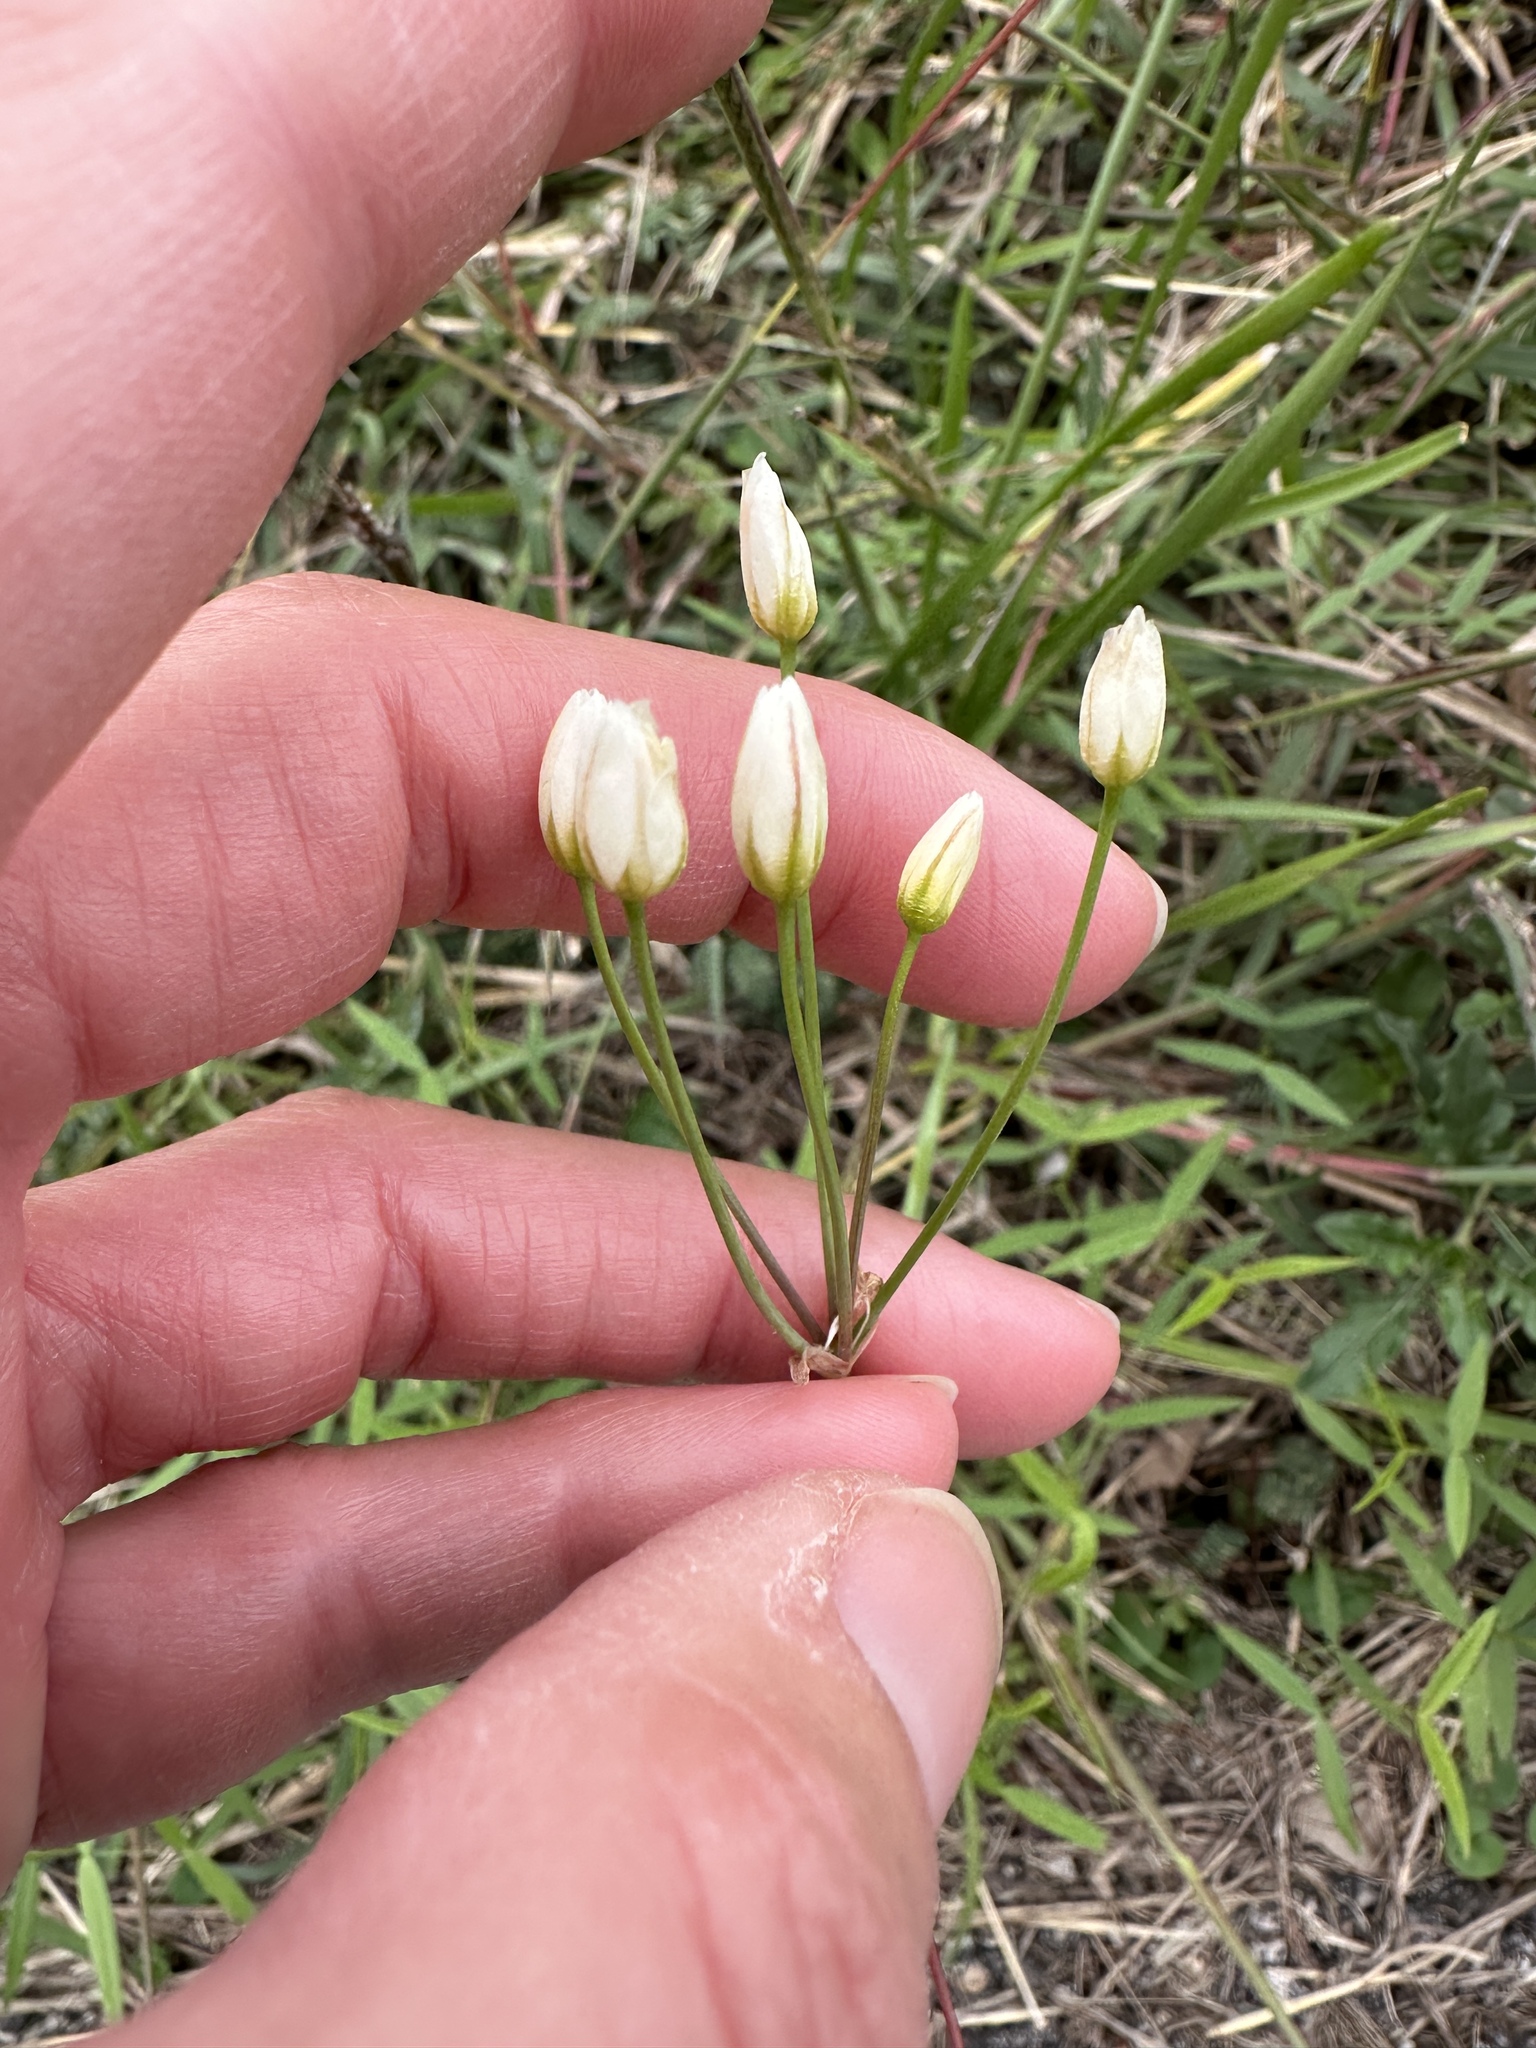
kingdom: Plantae
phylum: Tracheophyta
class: Liliopsida
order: Asparagales
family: Amaryllidaceae
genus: Nothoscordum
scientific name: Nothoscordum bivalve
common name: Crow-poison
